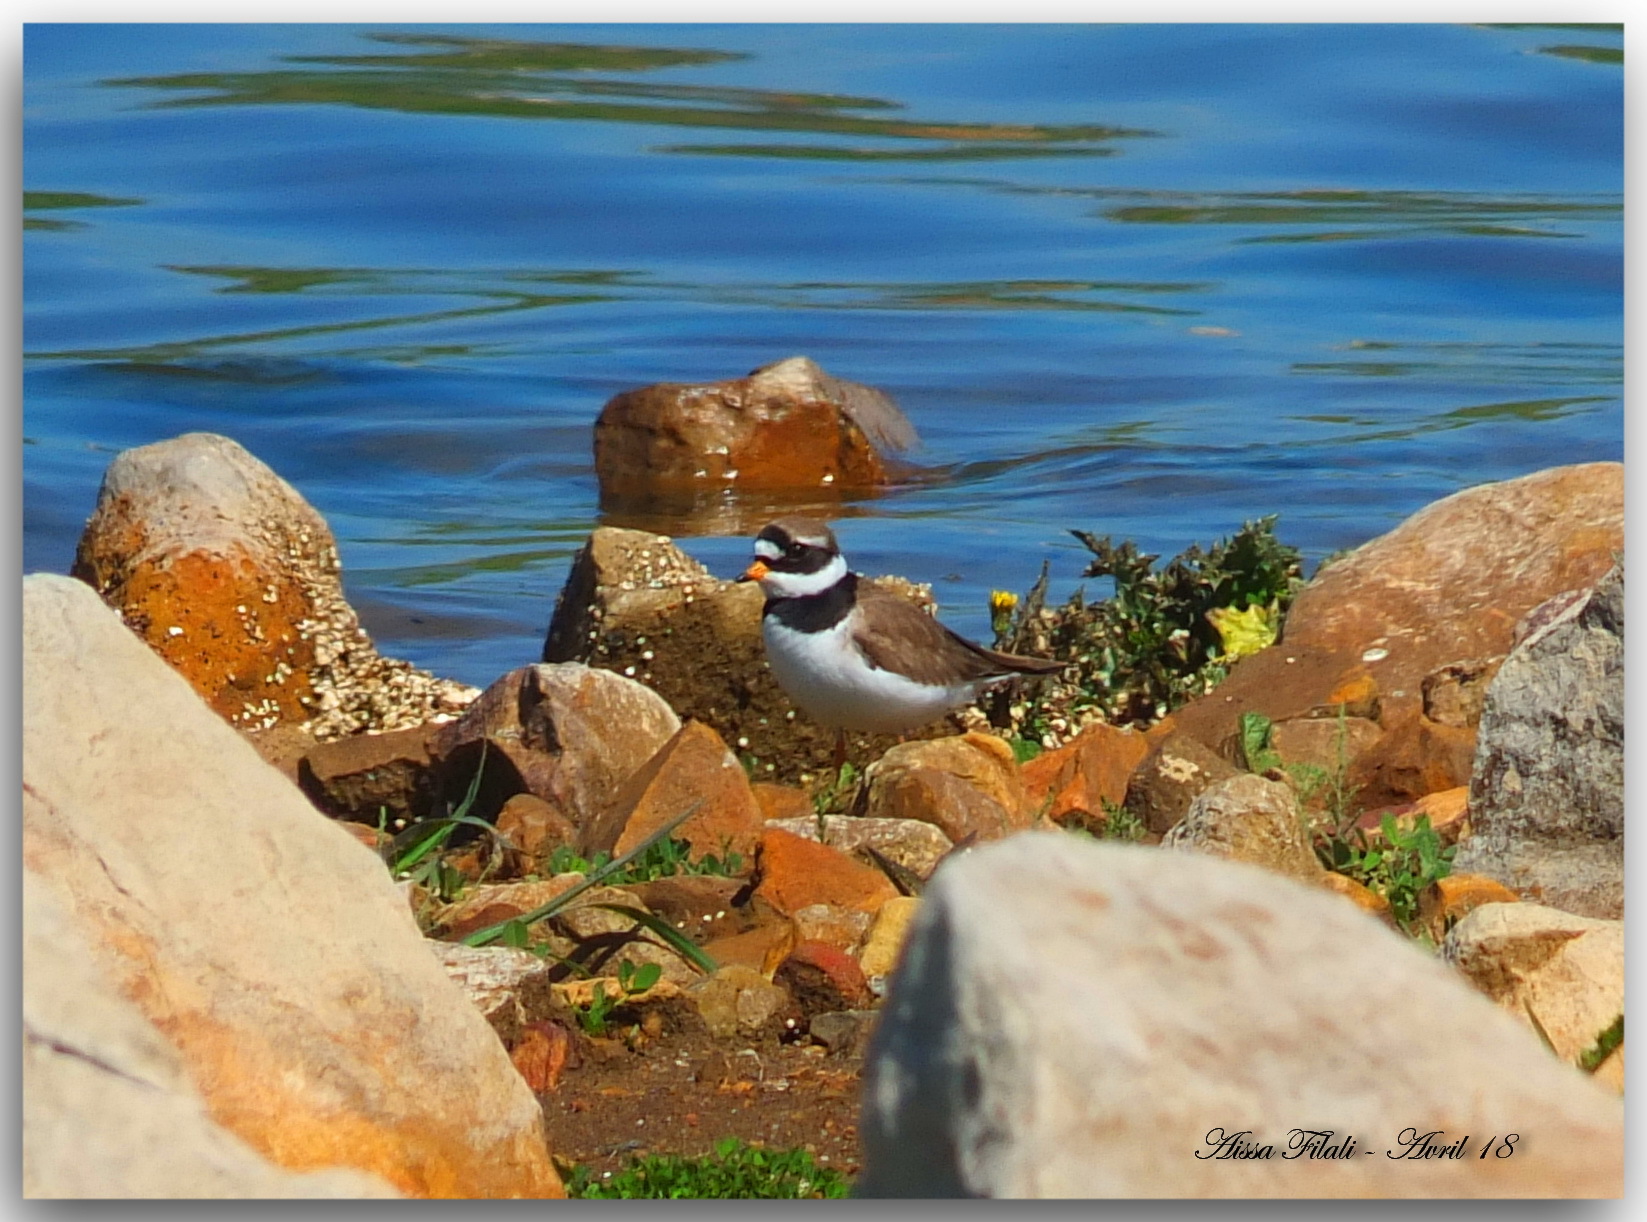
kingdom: Animalia
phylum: Chordata
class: Aves
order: Charadriiformes
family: Charadriidae
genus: Charadrius
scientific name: Charadrius hiaticula
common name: Common ringed plover
